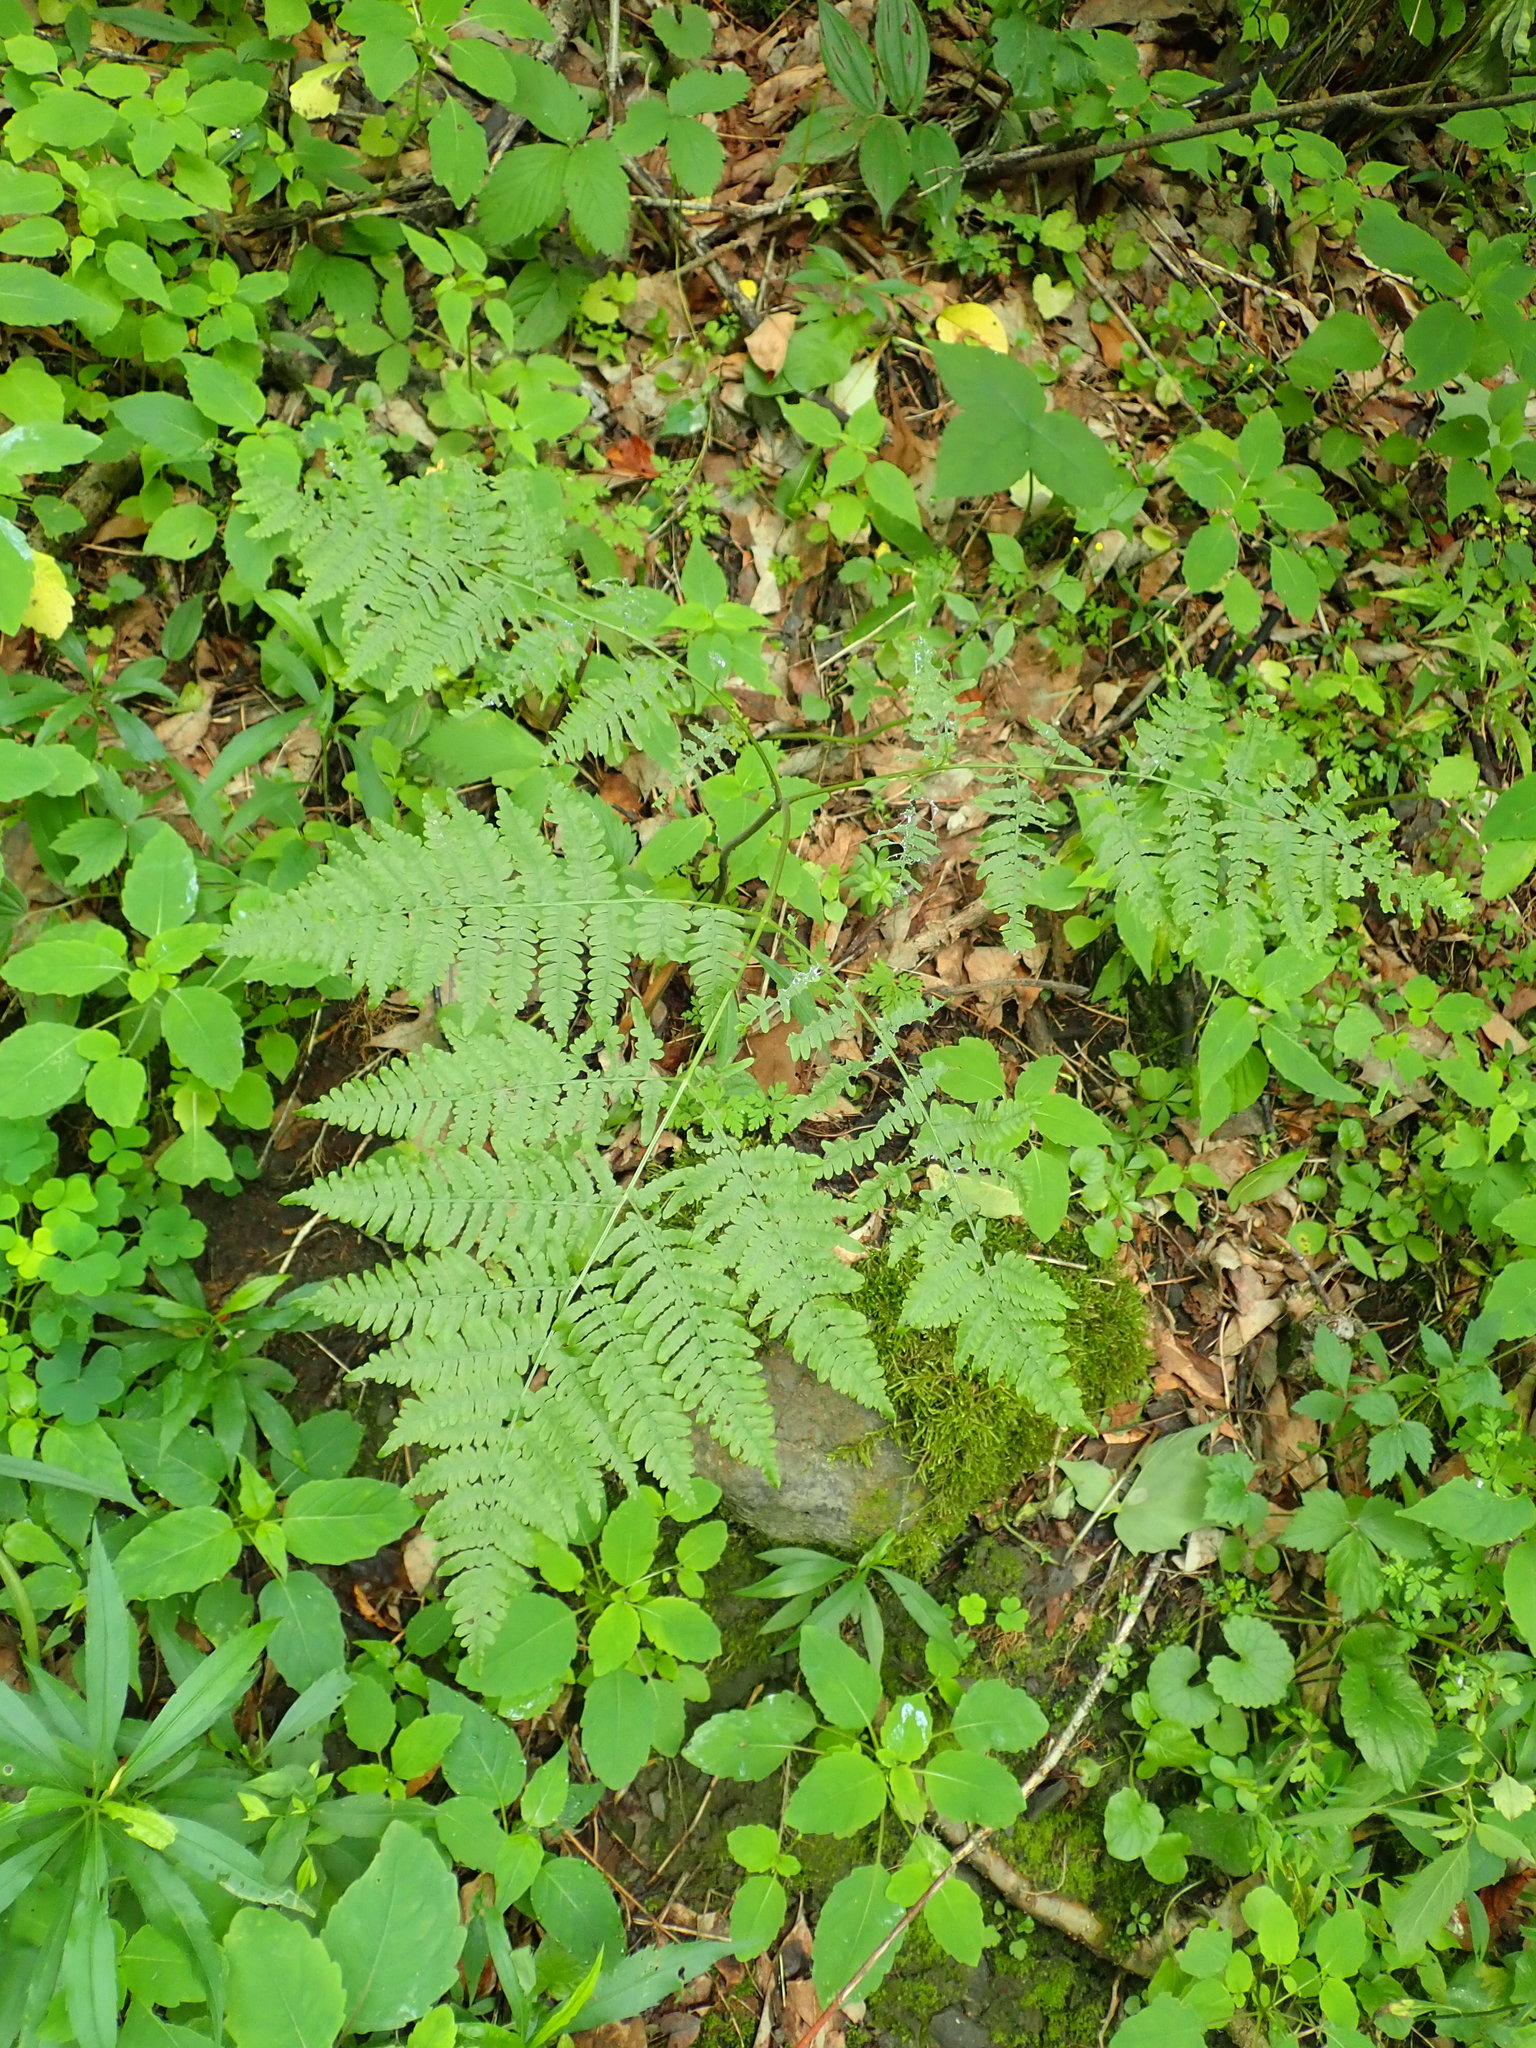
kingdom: Plantae
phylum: Tracheophyta
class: Polypodiopsida
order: Polypodiales
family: Dennstaedtiaceae
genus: Pteridium
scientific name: Pteridium aquilinum
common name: Bracken
